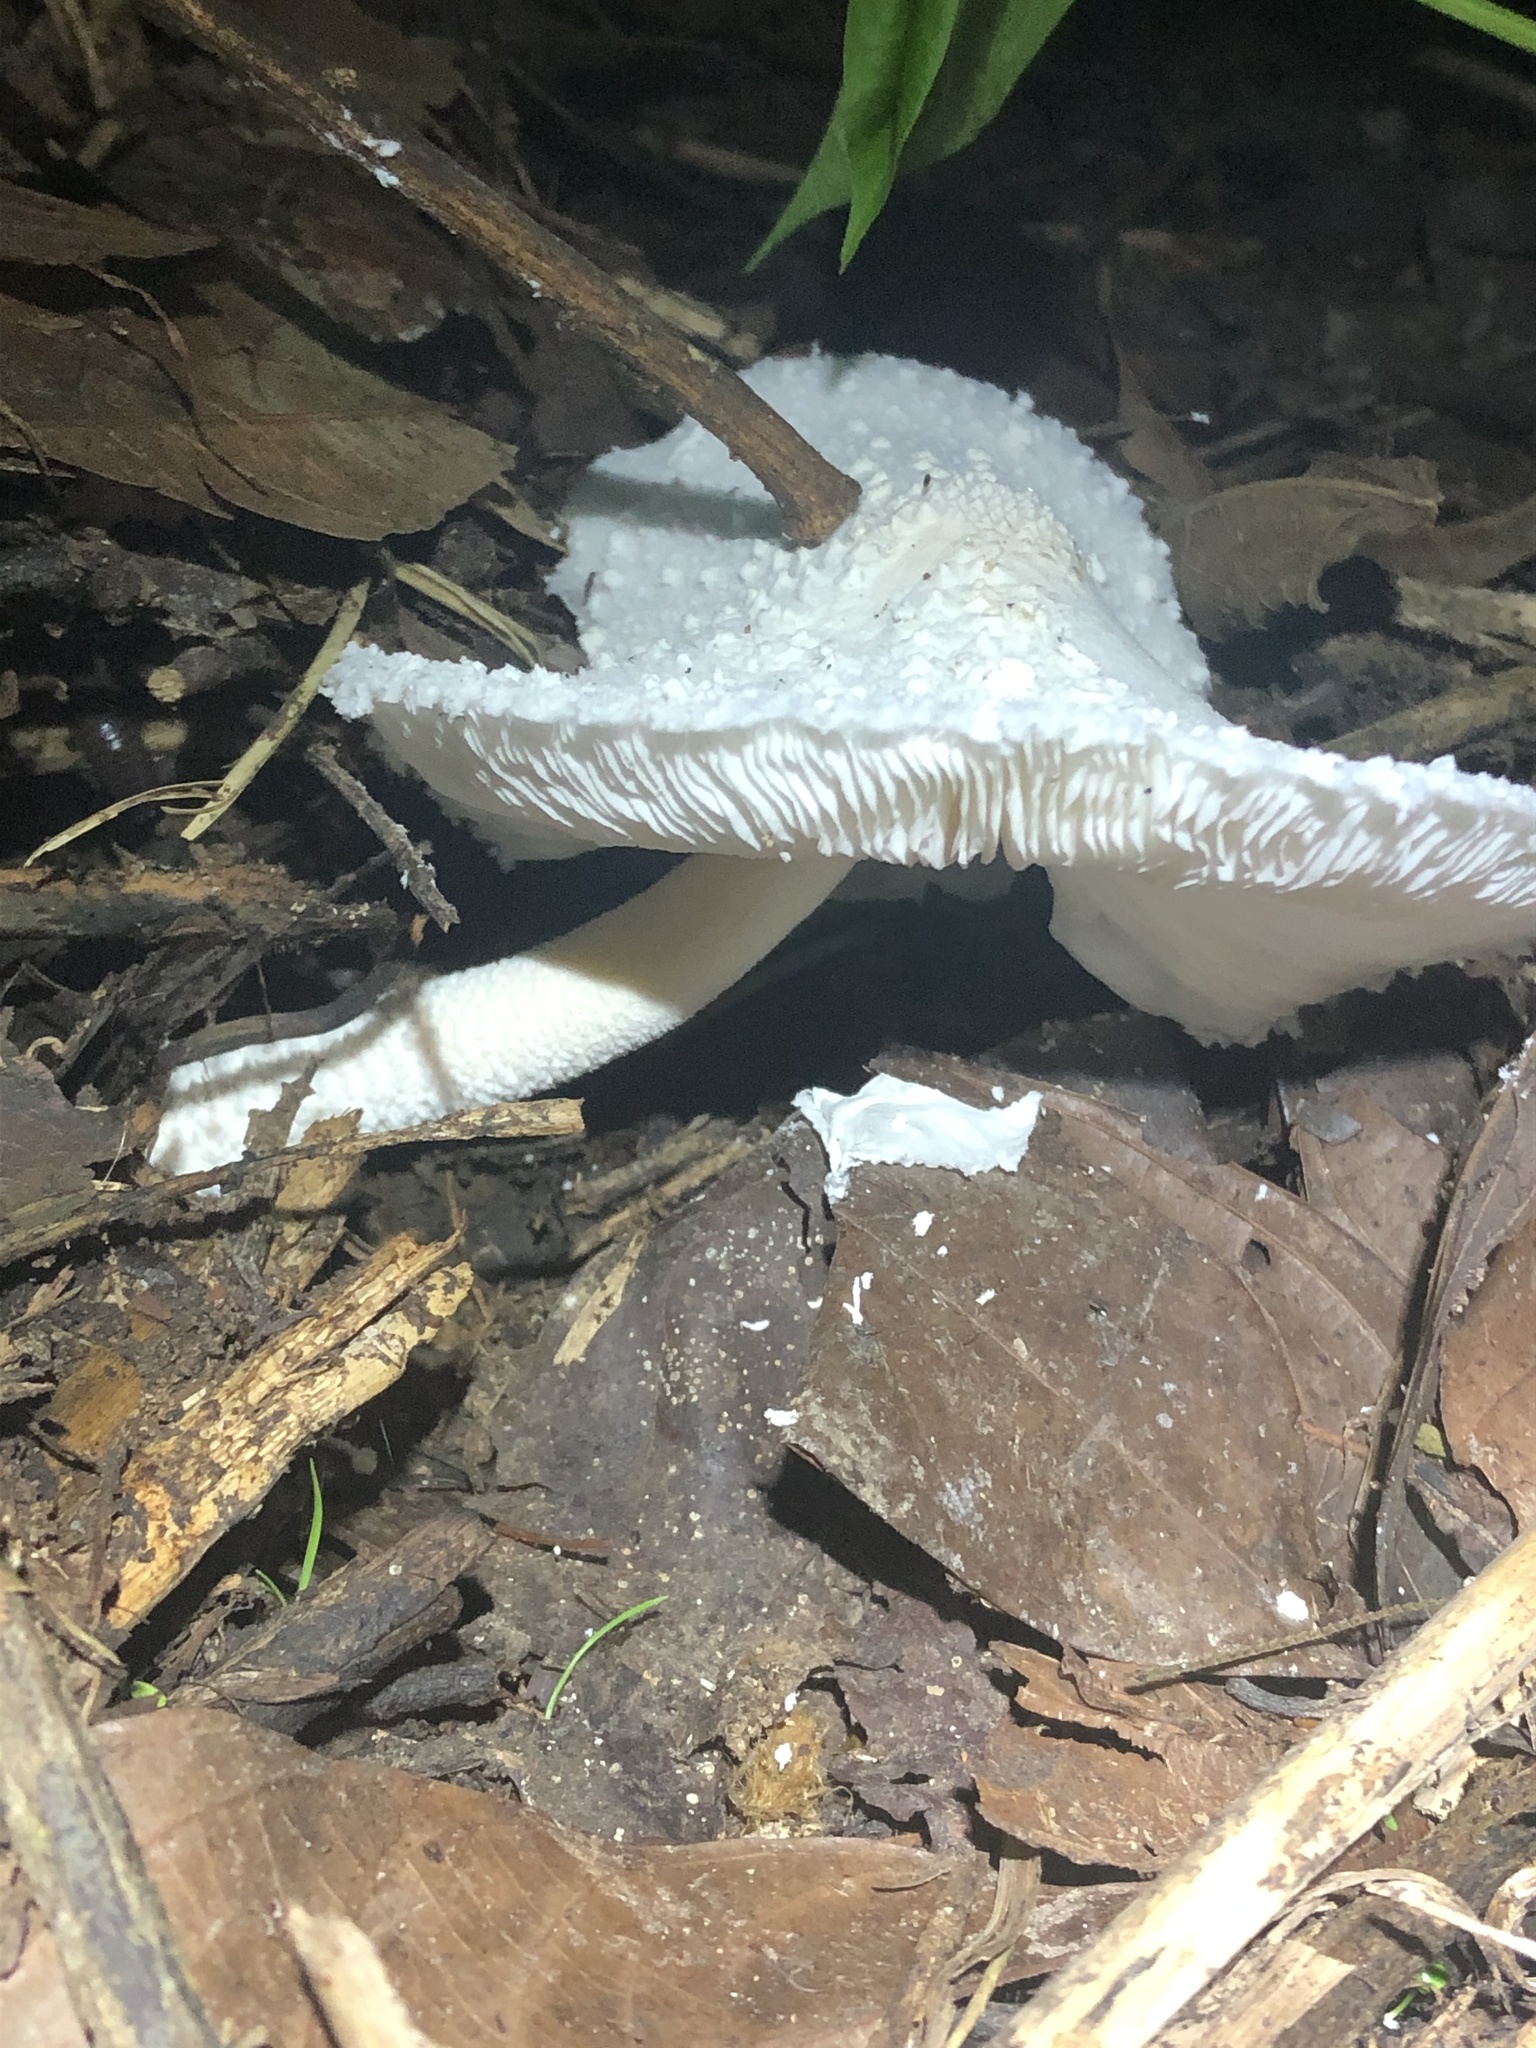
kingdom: Fungi
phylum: Basidiomycota
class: Agaricomycetes
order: Agaricales
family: Agaricaceae
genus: Leucocoprinus
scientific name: Leucocoprinus cretaceus
